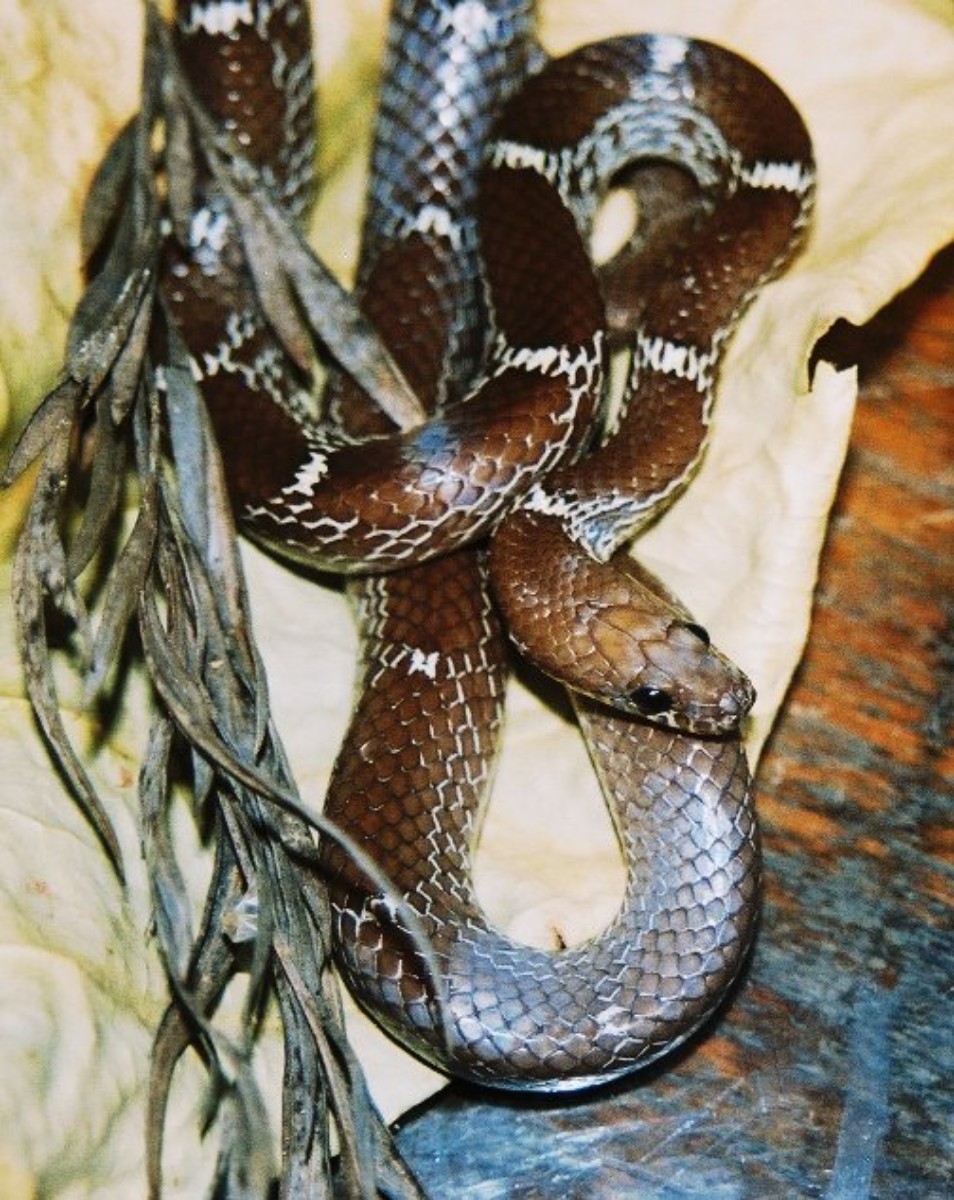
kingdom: Animalia
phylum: Chordata
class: Squamata
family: Colubridae
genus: Lycodon
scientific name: Lycodon fasciolatus
